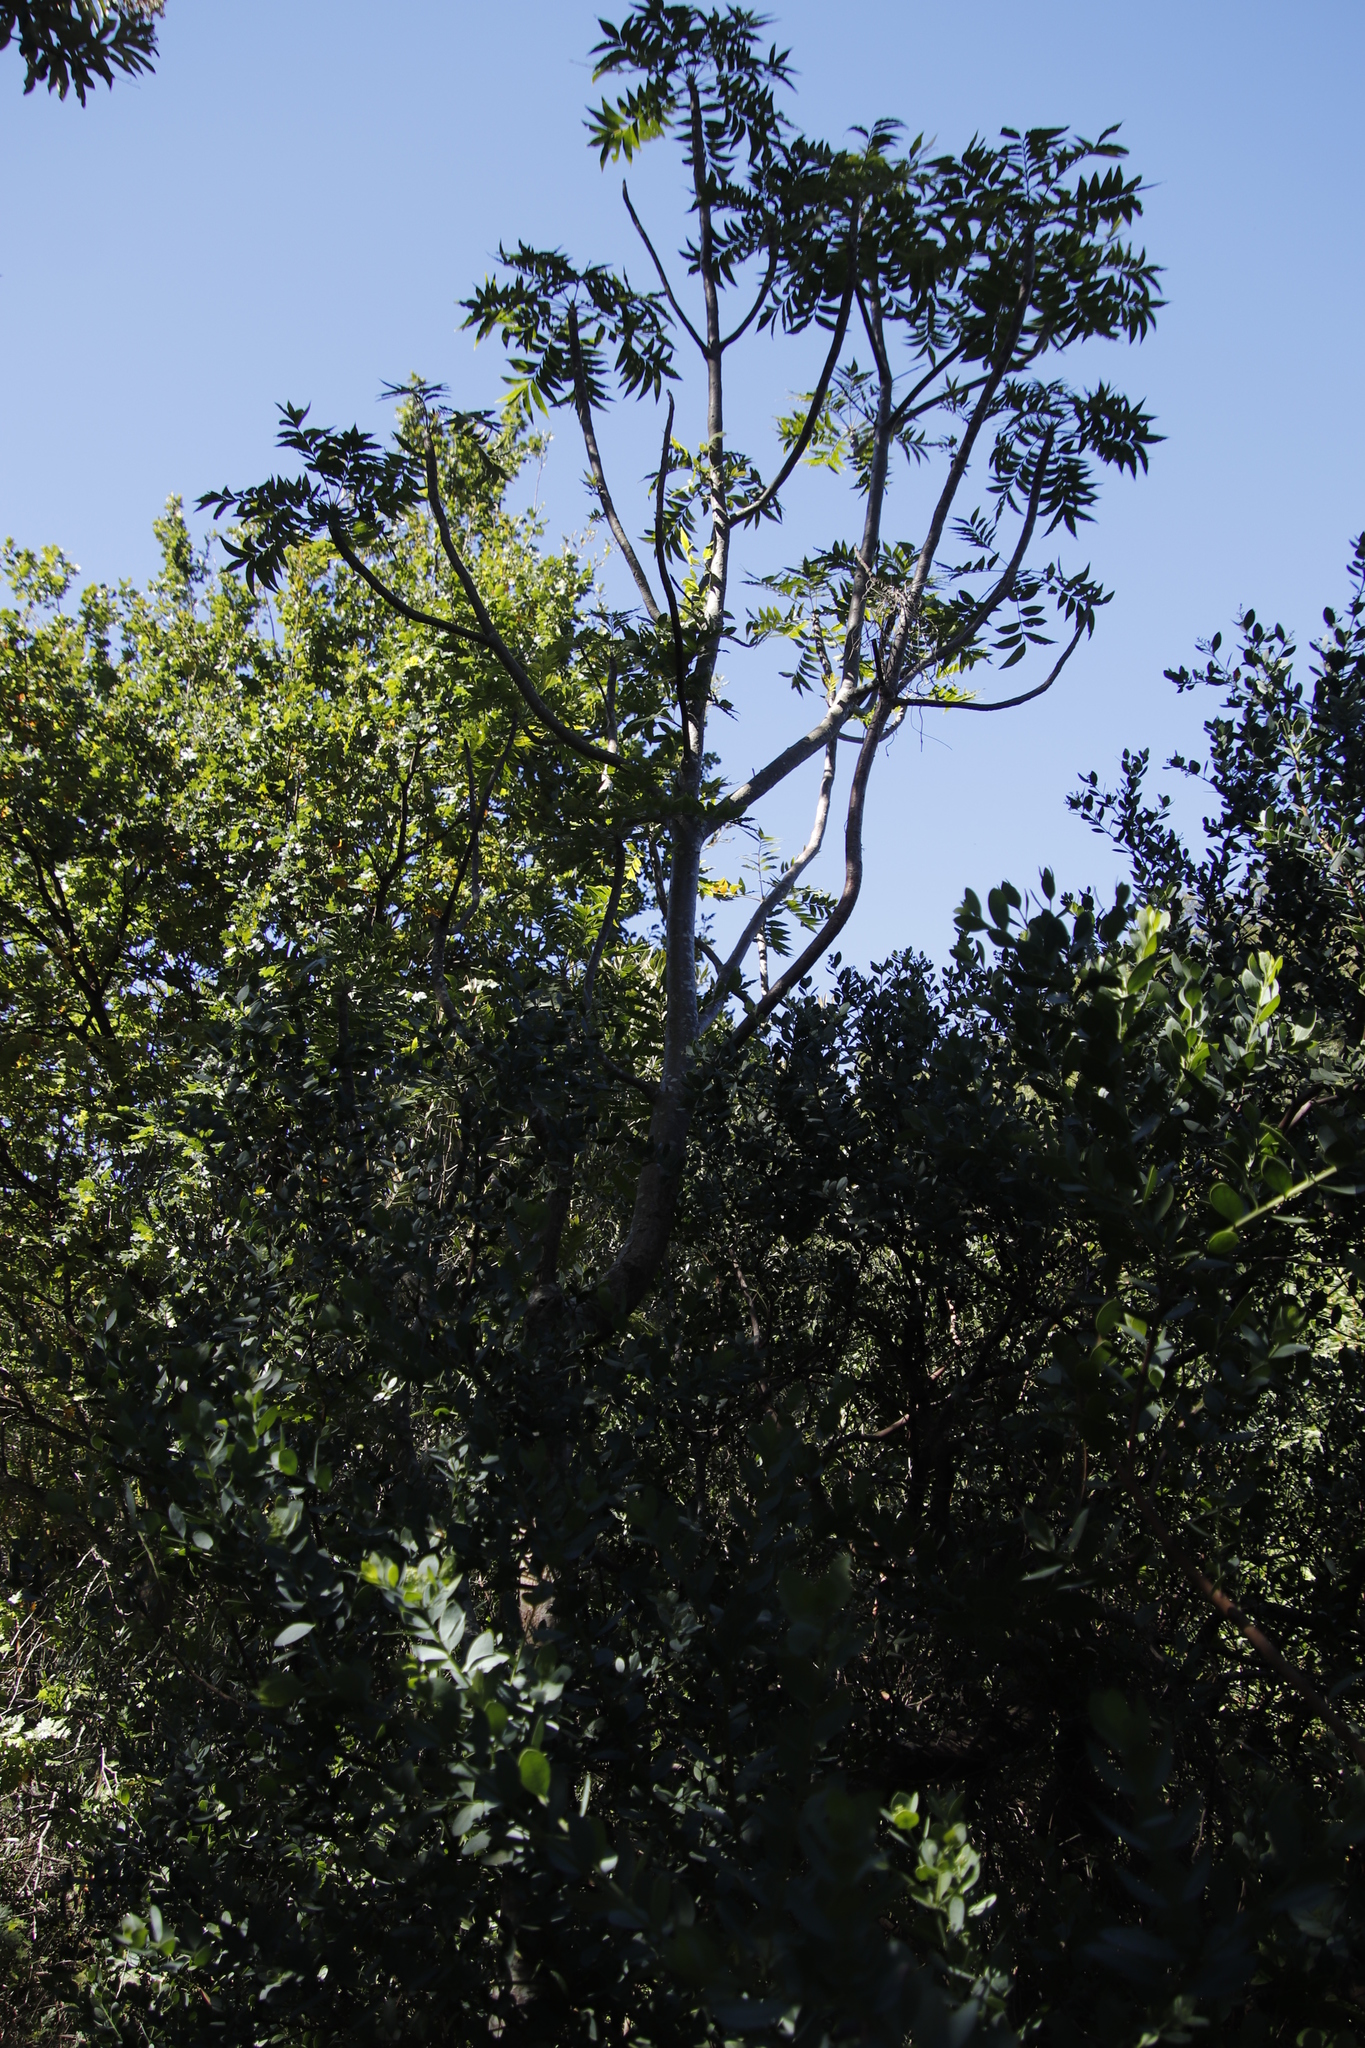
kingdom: Plantae
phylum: Tracheophyta
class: Magnoliopsida
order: Sapindales
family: Anacardiaceae
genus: Harpephyllum
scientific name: Harpephyllum caffrum
